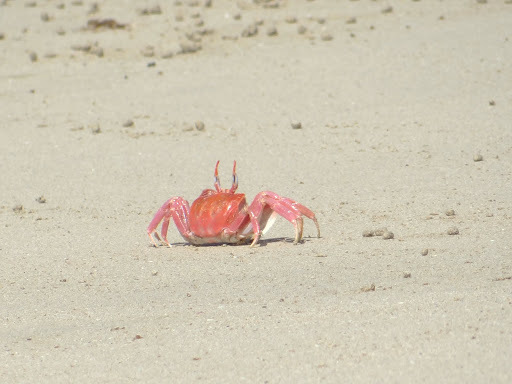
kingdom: Animalia
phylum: Arthropoda
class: Malacostraca
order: Decapoda
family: Ocypodidae
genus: Ocypode
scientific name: Ocypode gaudichaudii
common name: Pacific ghost crab
